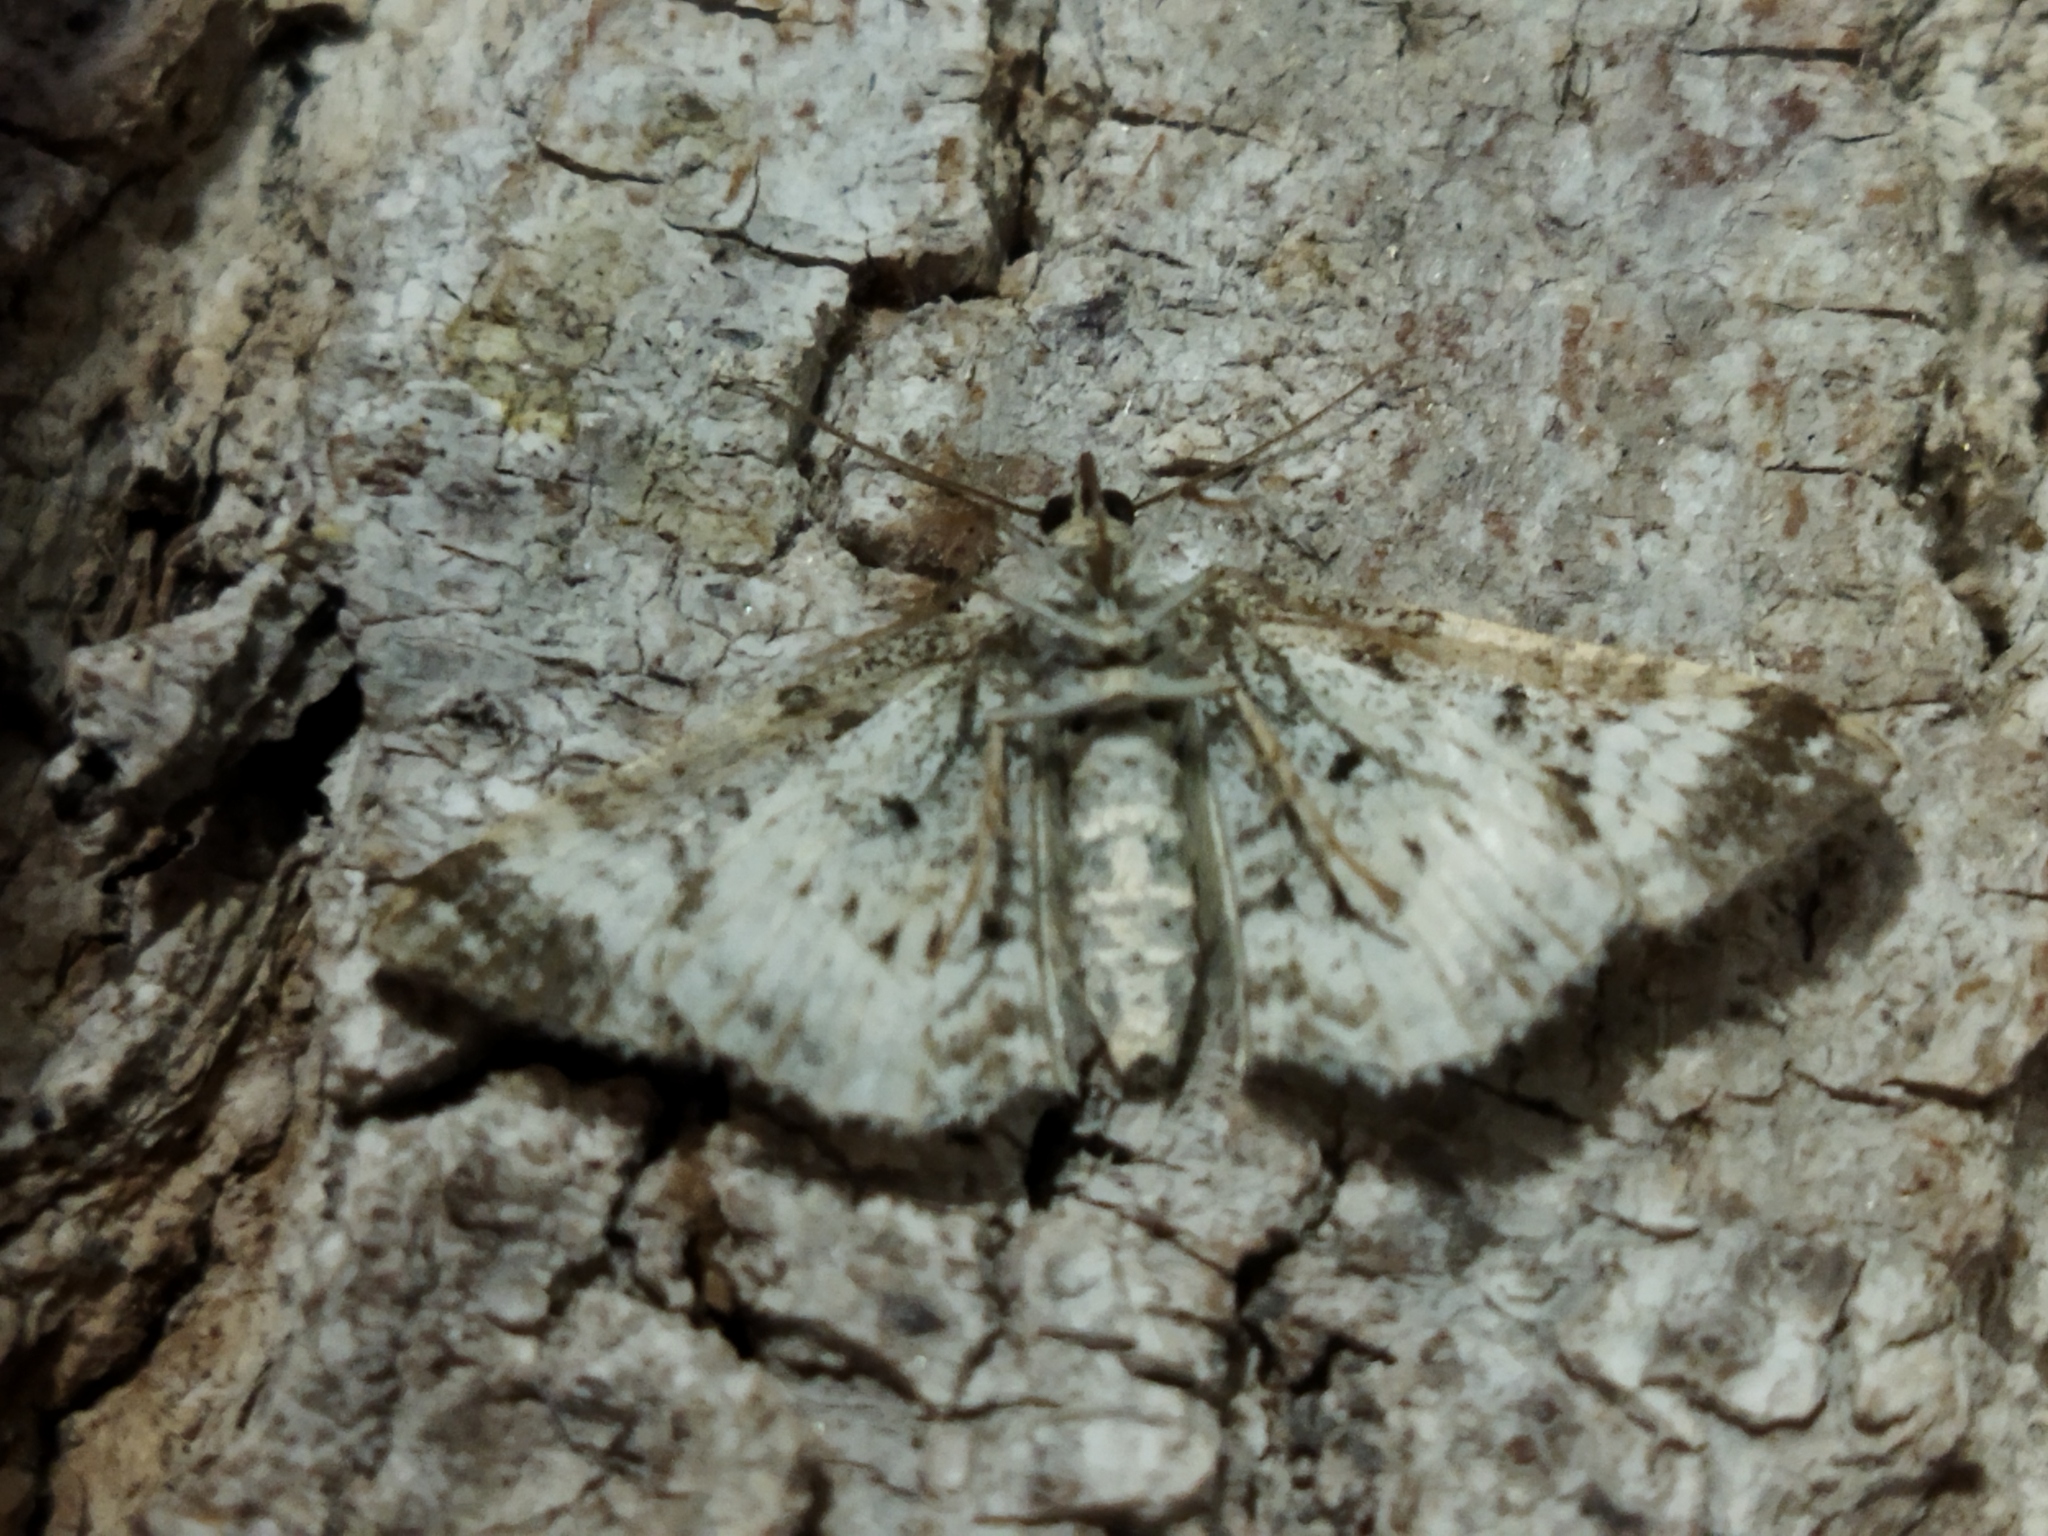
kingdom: Animalia
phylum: Arthropoda
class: Insecta
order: Lepidoptera
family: Geometridae
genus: Epirrhoe
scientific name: Epirrhoe alternata
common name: Common carpet
